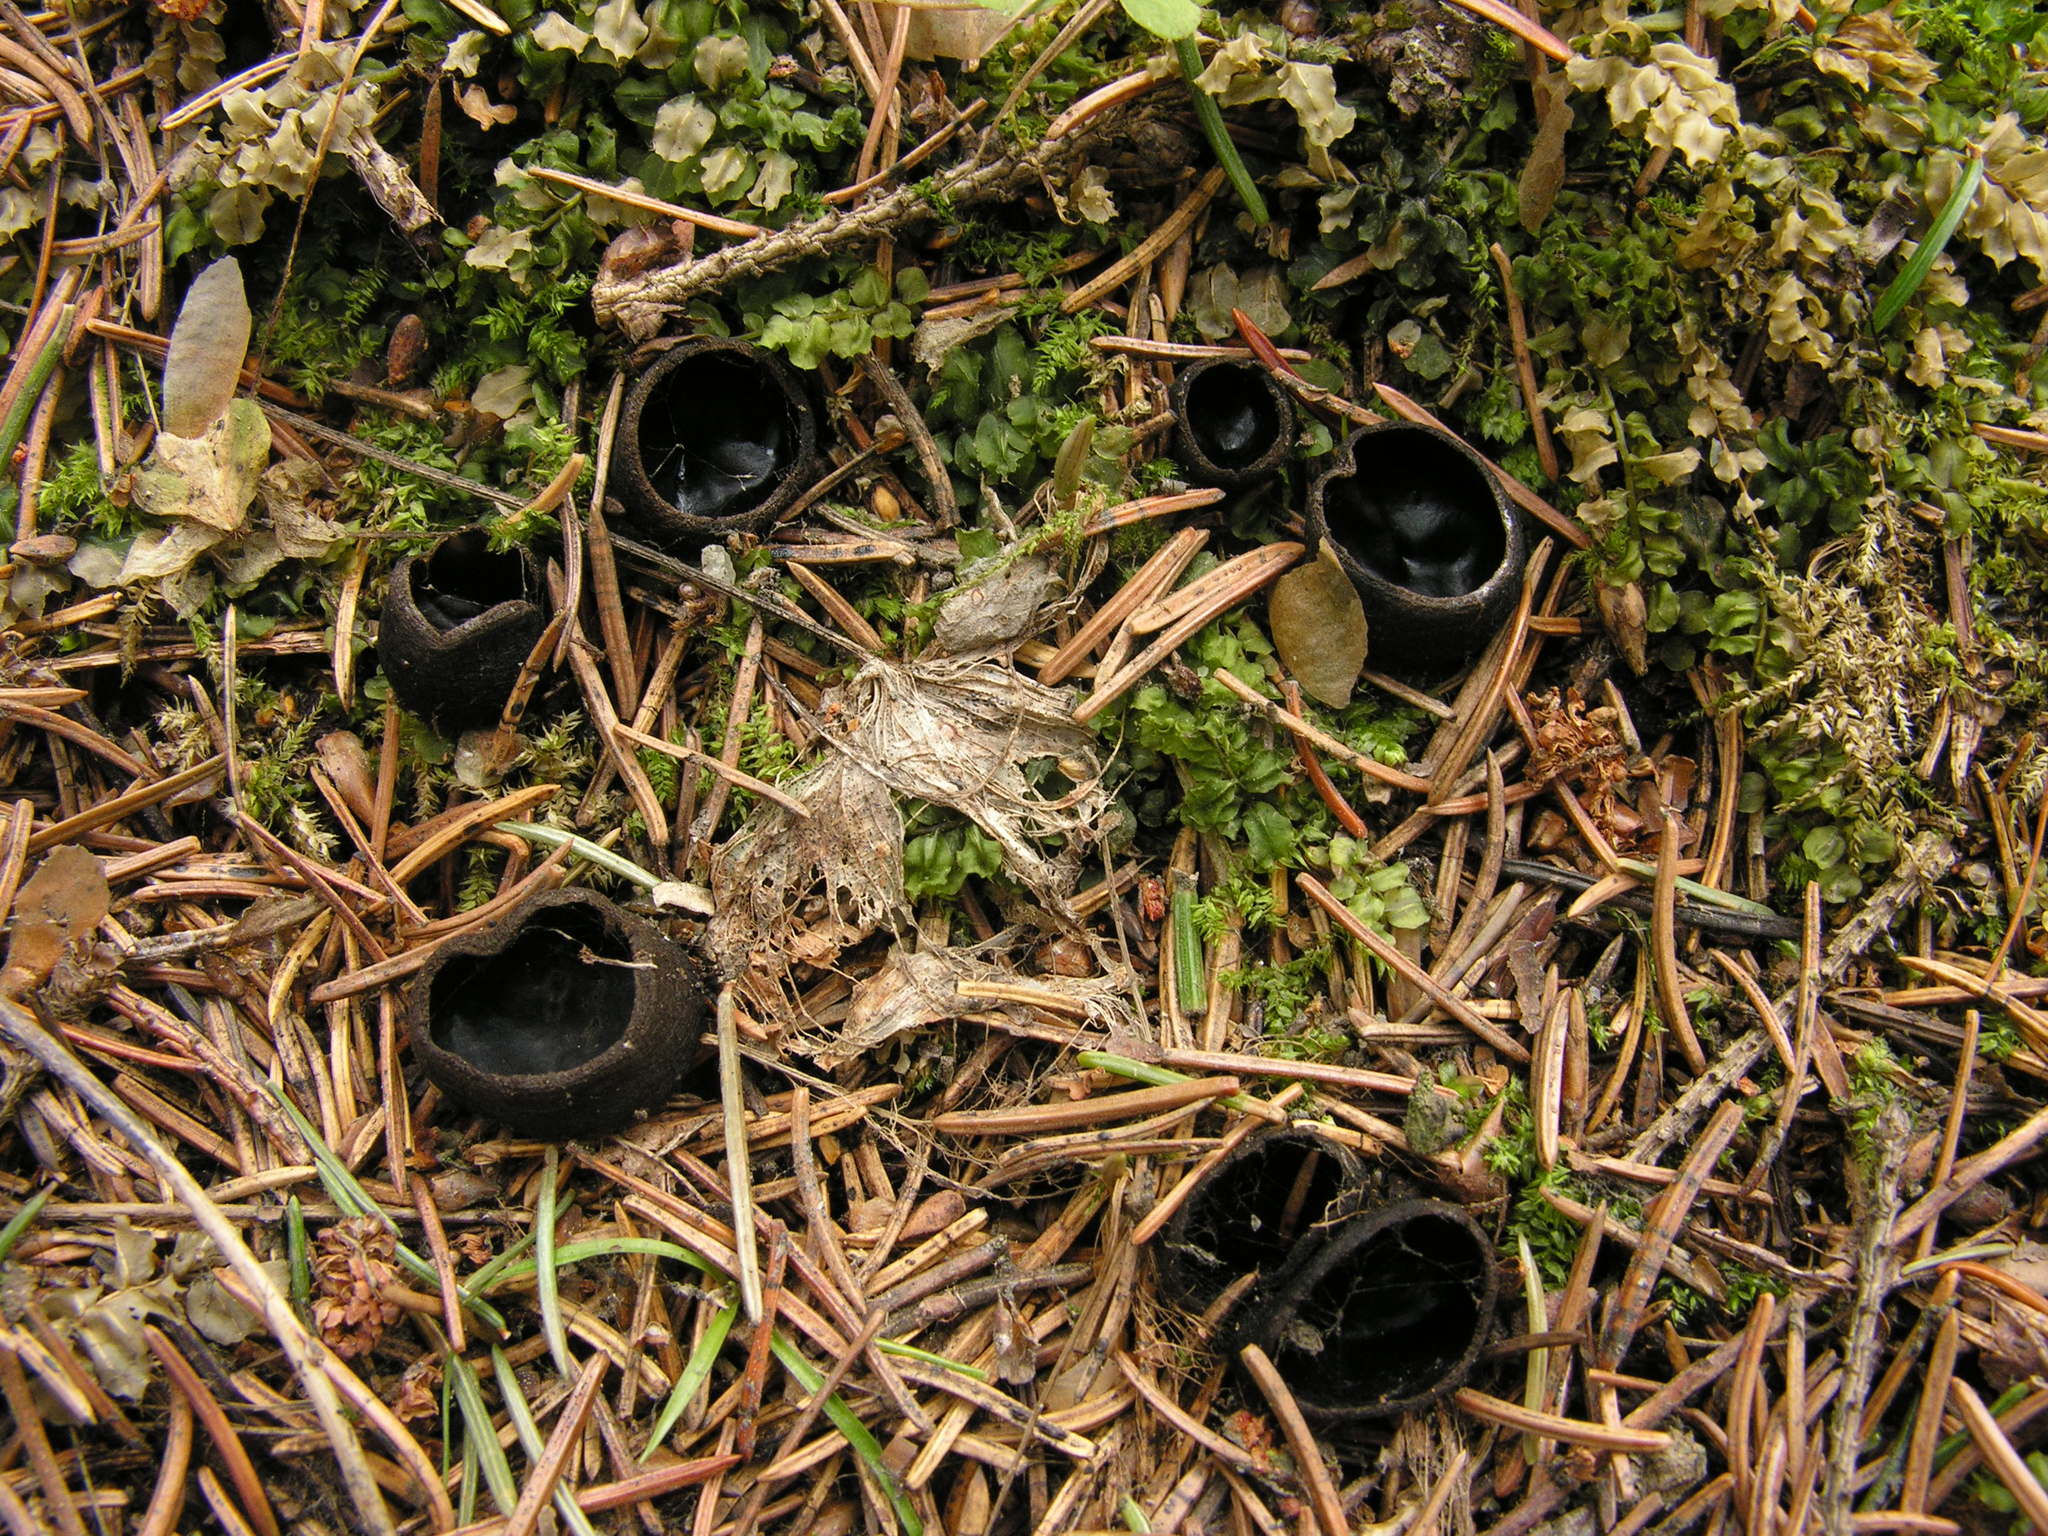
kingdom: Fungi
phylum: Ascomycota
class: Pezizomycetes
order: Pezizales
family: Sarcosomataceae
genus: Pseudoplectania
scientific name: Pseudoplectania nigrella
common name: Ebony cup
